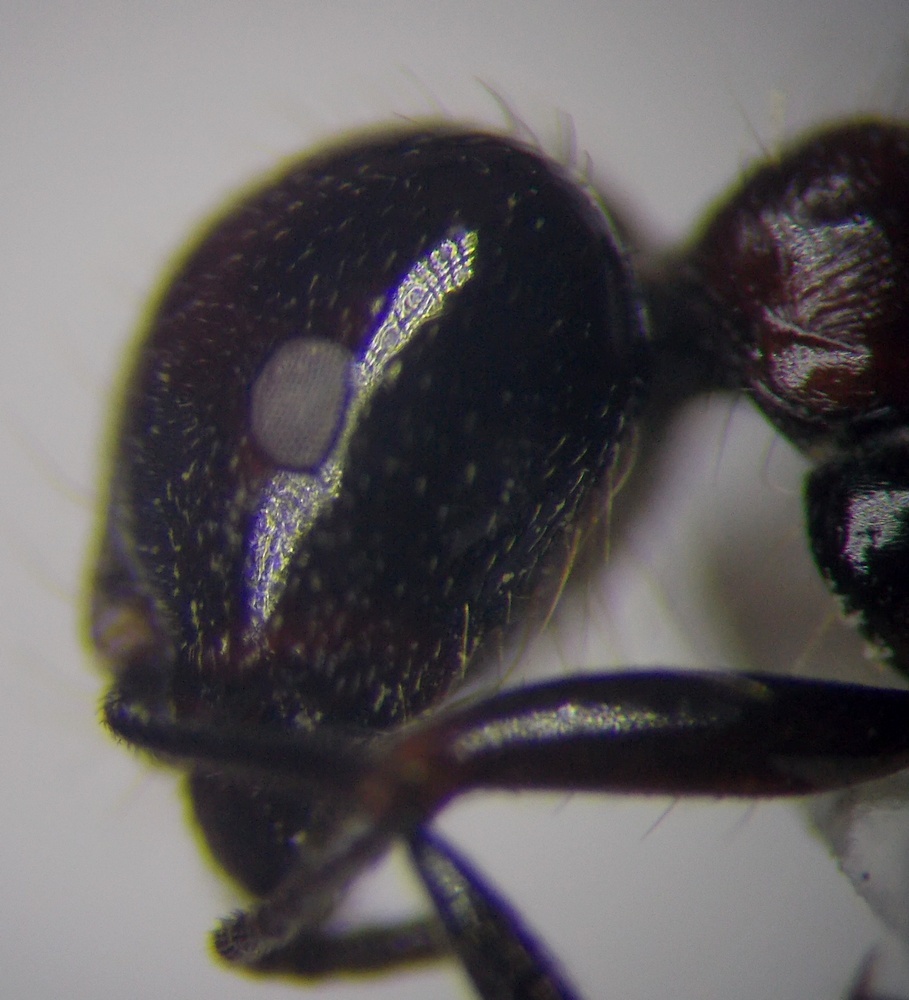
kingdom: Animalia
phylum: Arthropoda
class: Insecta
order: Hymenoptera
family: Formicidae
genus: Messor
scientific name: Messor denticulatus
